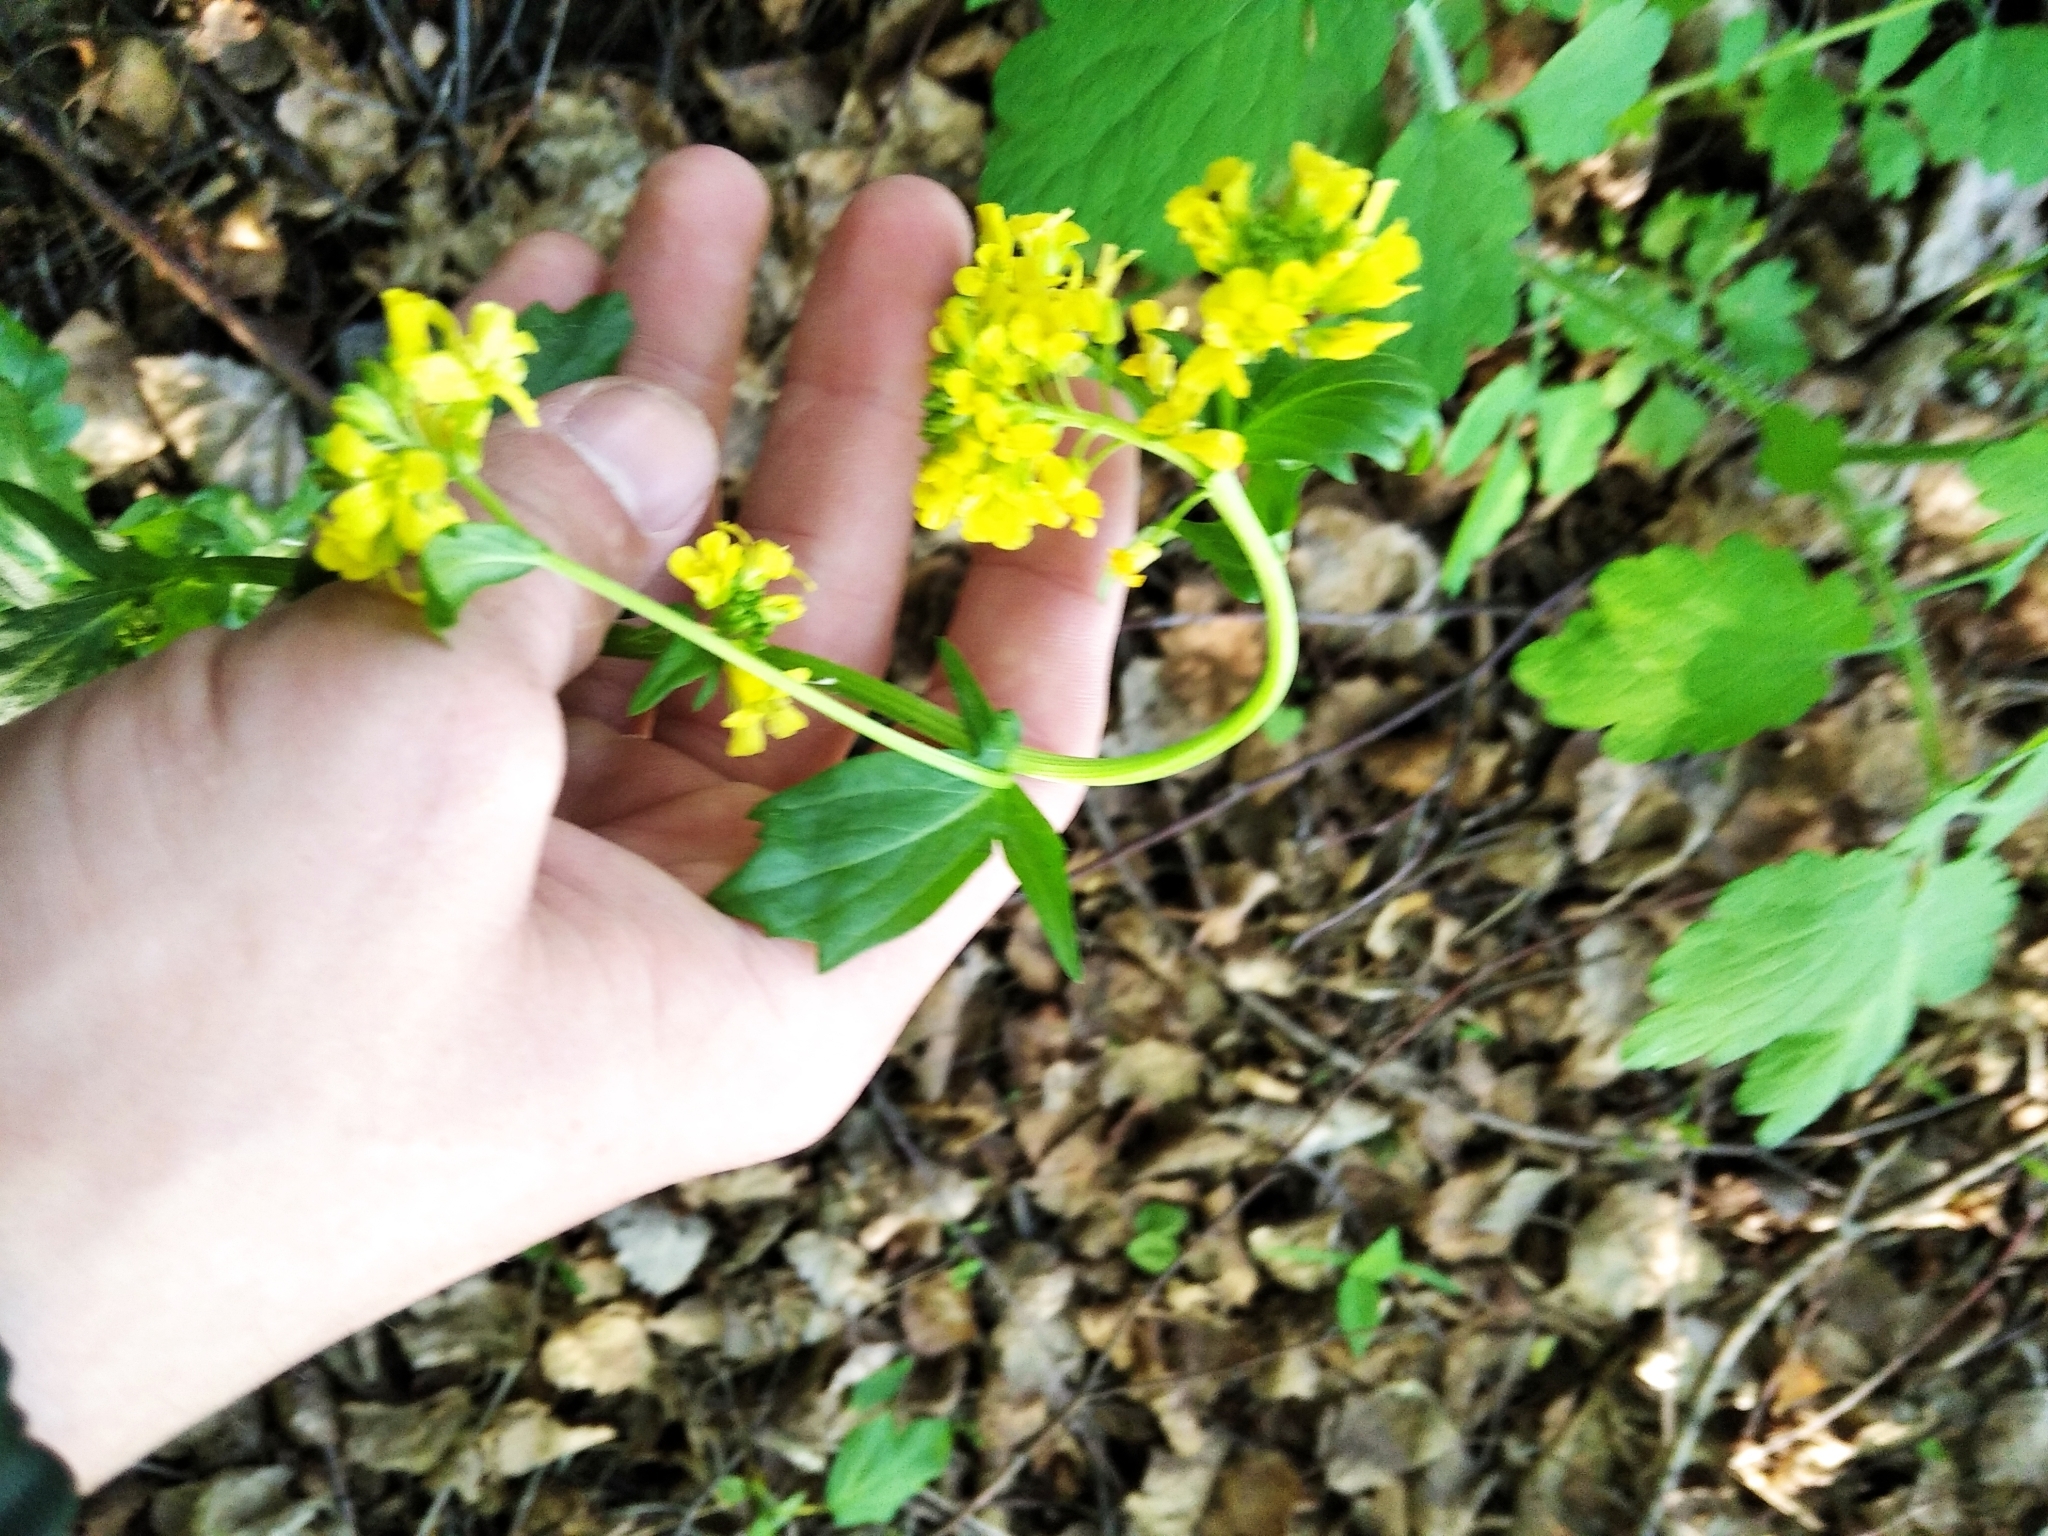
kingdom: Plantae
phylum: Tracheophyta
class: Magnoliopsida
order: Brassicales
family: Brassicaceae
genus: Barbarea
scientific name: Barbarea vulgaris
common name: Cressy-greens
